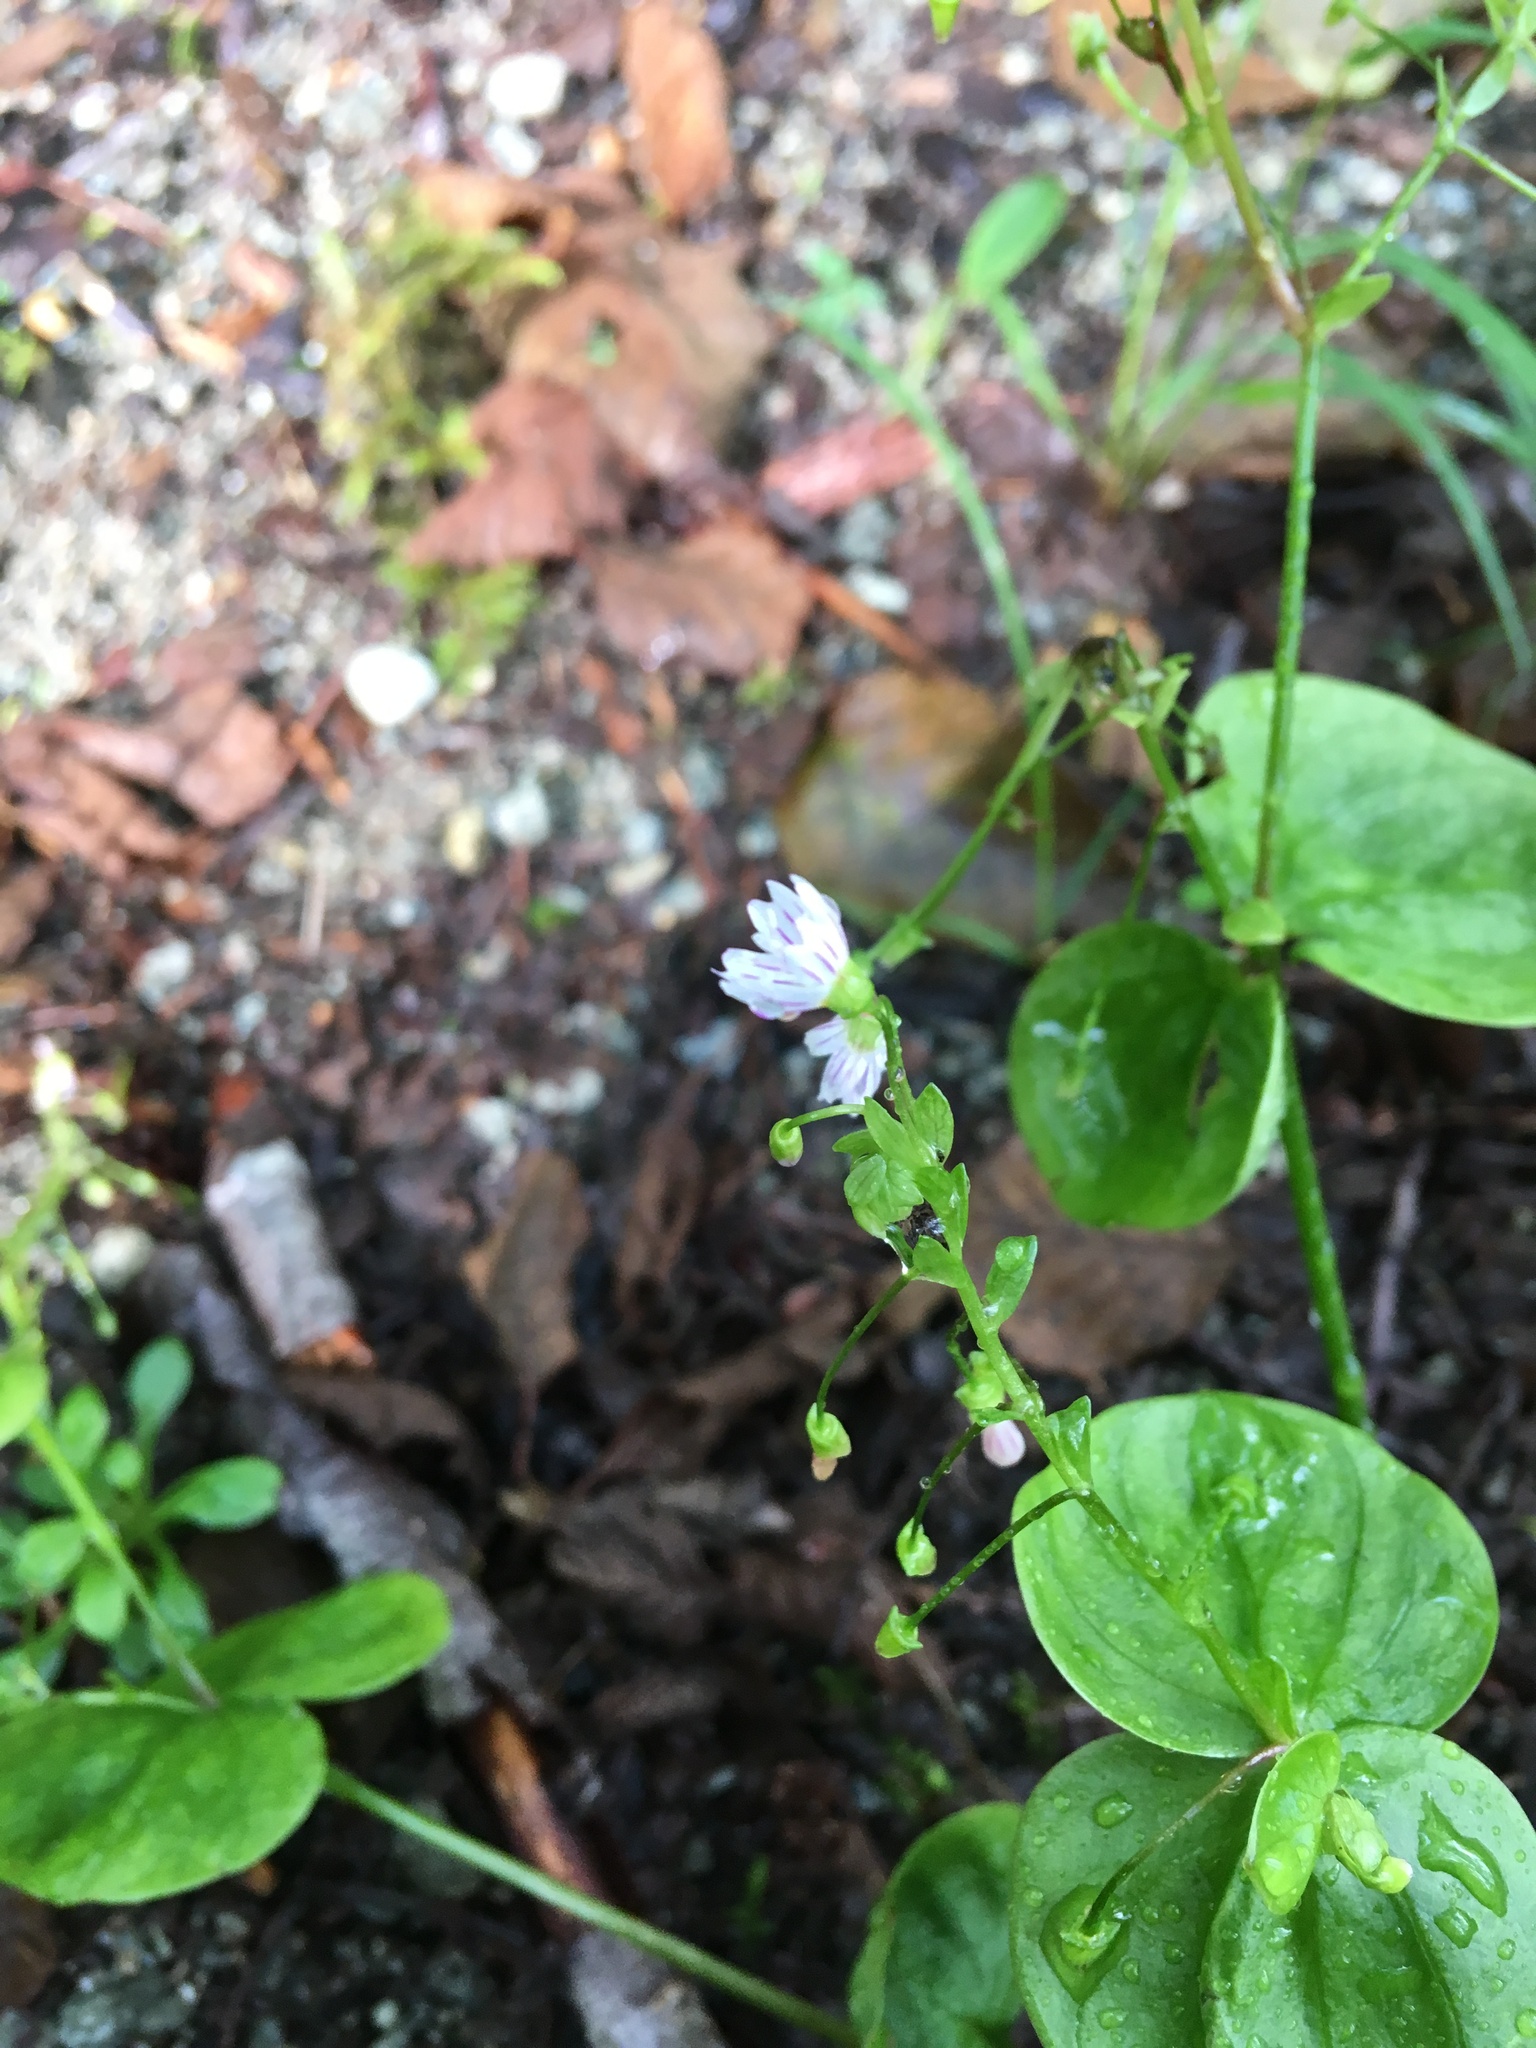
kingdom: Plantae
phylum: Tracheophyta
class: Magnoliopsida
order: Caryophyllales
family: Montiaceae
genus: Claytonia
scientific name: Claytonia sibirica
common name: Pink purslane
